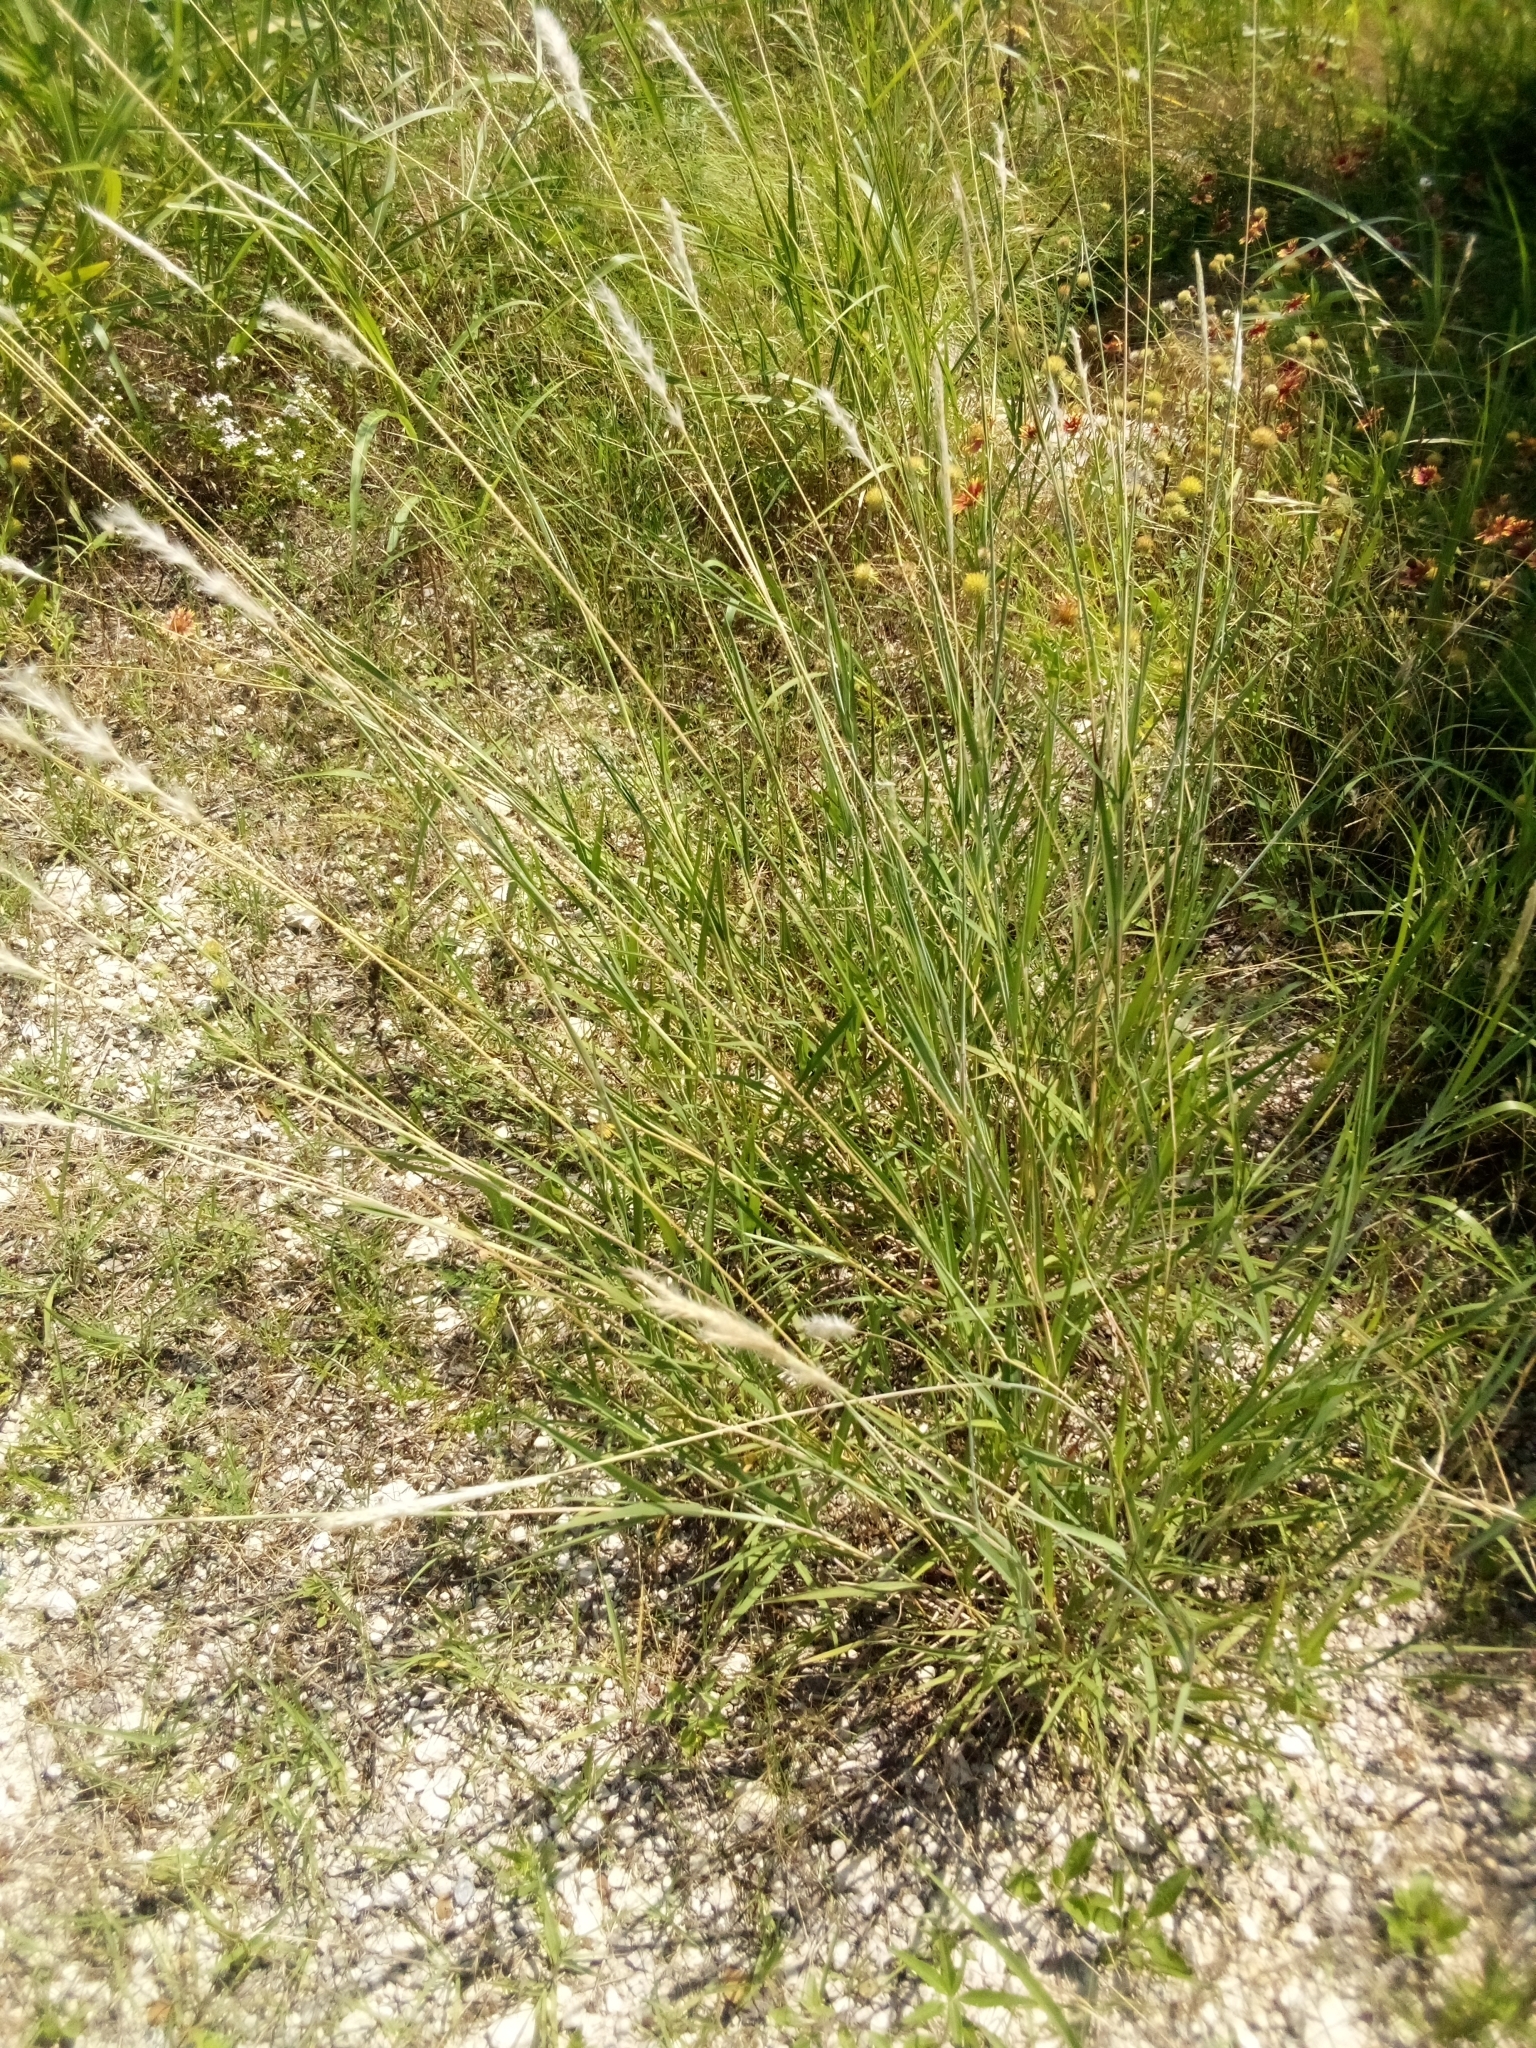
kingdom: Plantae
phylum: Tracheophyta
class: Liliopsida
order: Poales
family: Poaceae
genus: Bothriochloa
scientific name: Bothriochloa torreyana
